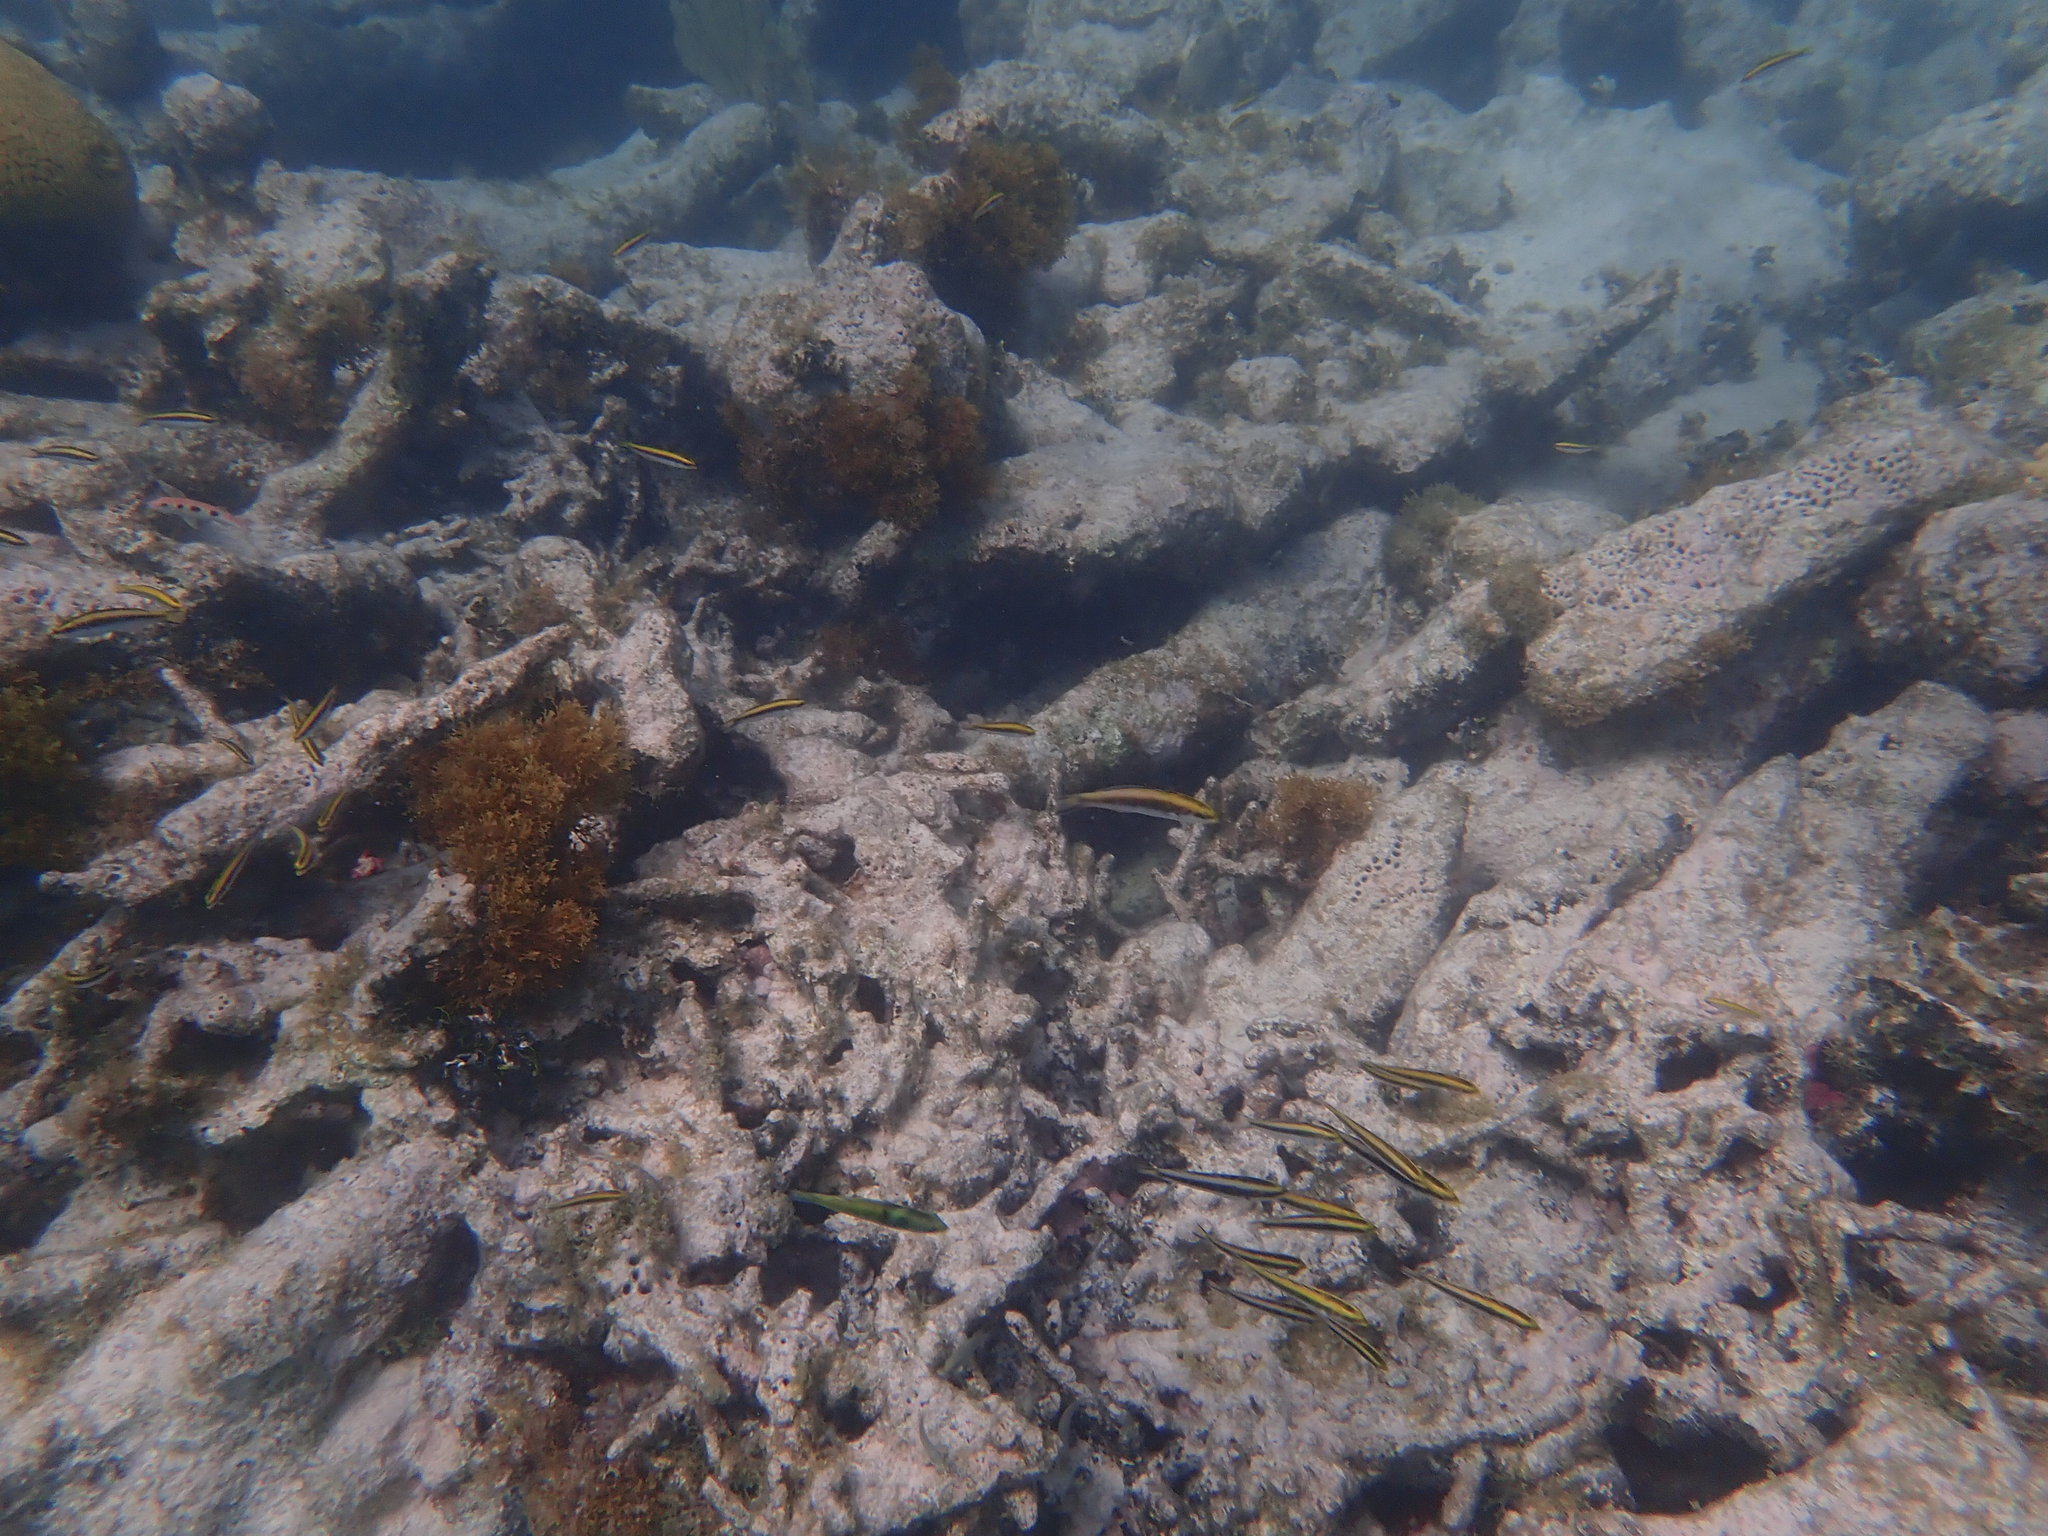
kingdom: Animalia
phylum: Chordata
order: Perciformes
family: Labridae
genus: Thalassoma
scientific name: Thalassoma bifasciatum
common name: Bluehead wrasse
